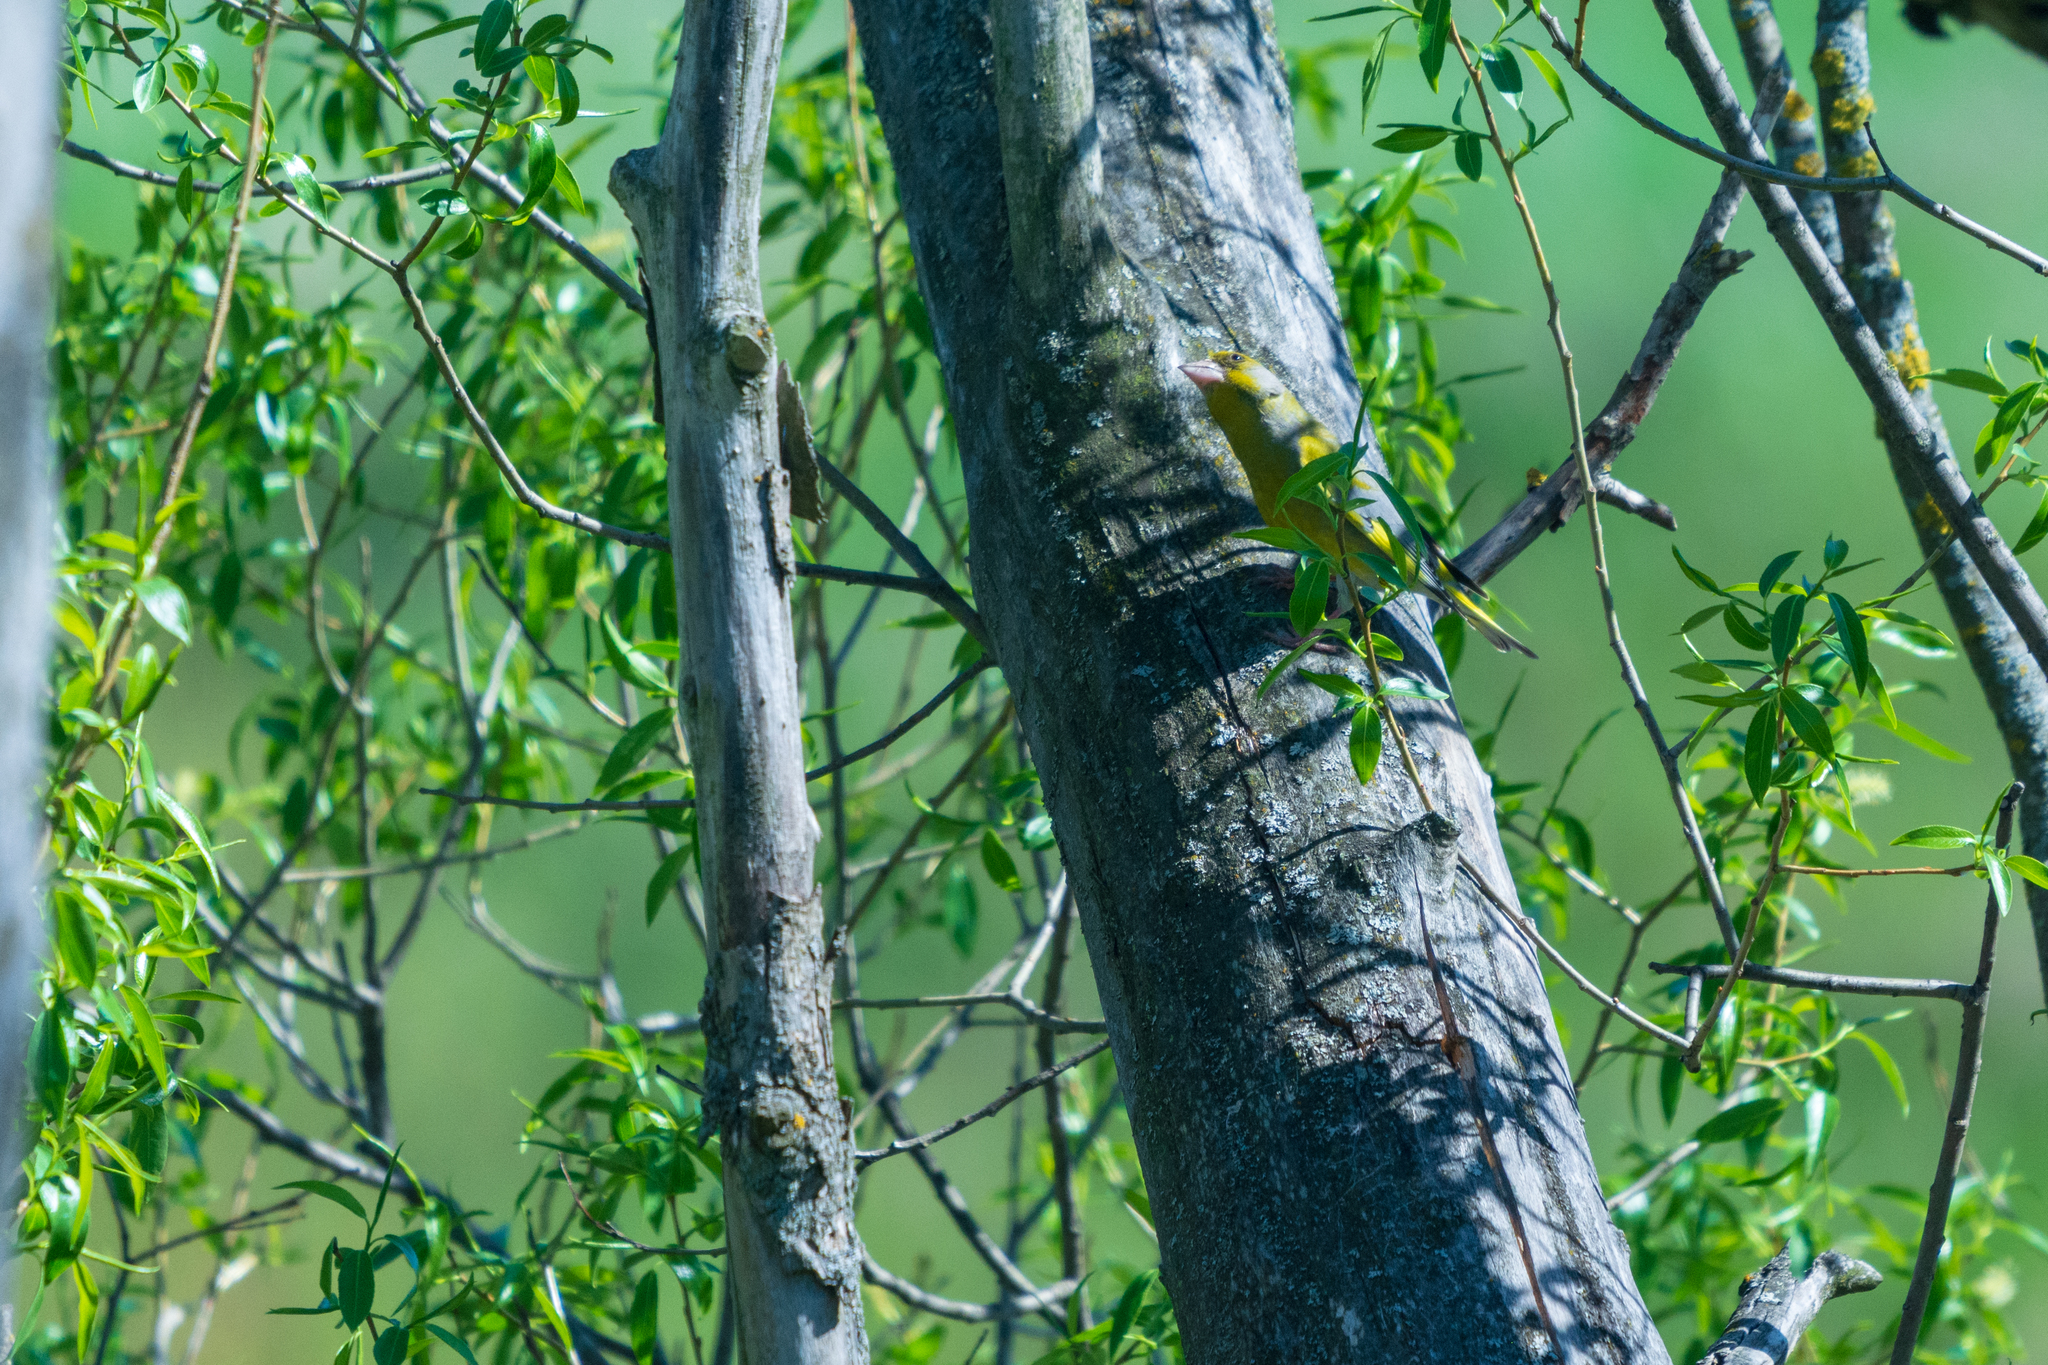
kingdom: Plantae
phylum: Tracheophyta
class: Liliopsida
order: Poales
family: Poaceae
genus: Chloris
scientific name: Chloris chloris
